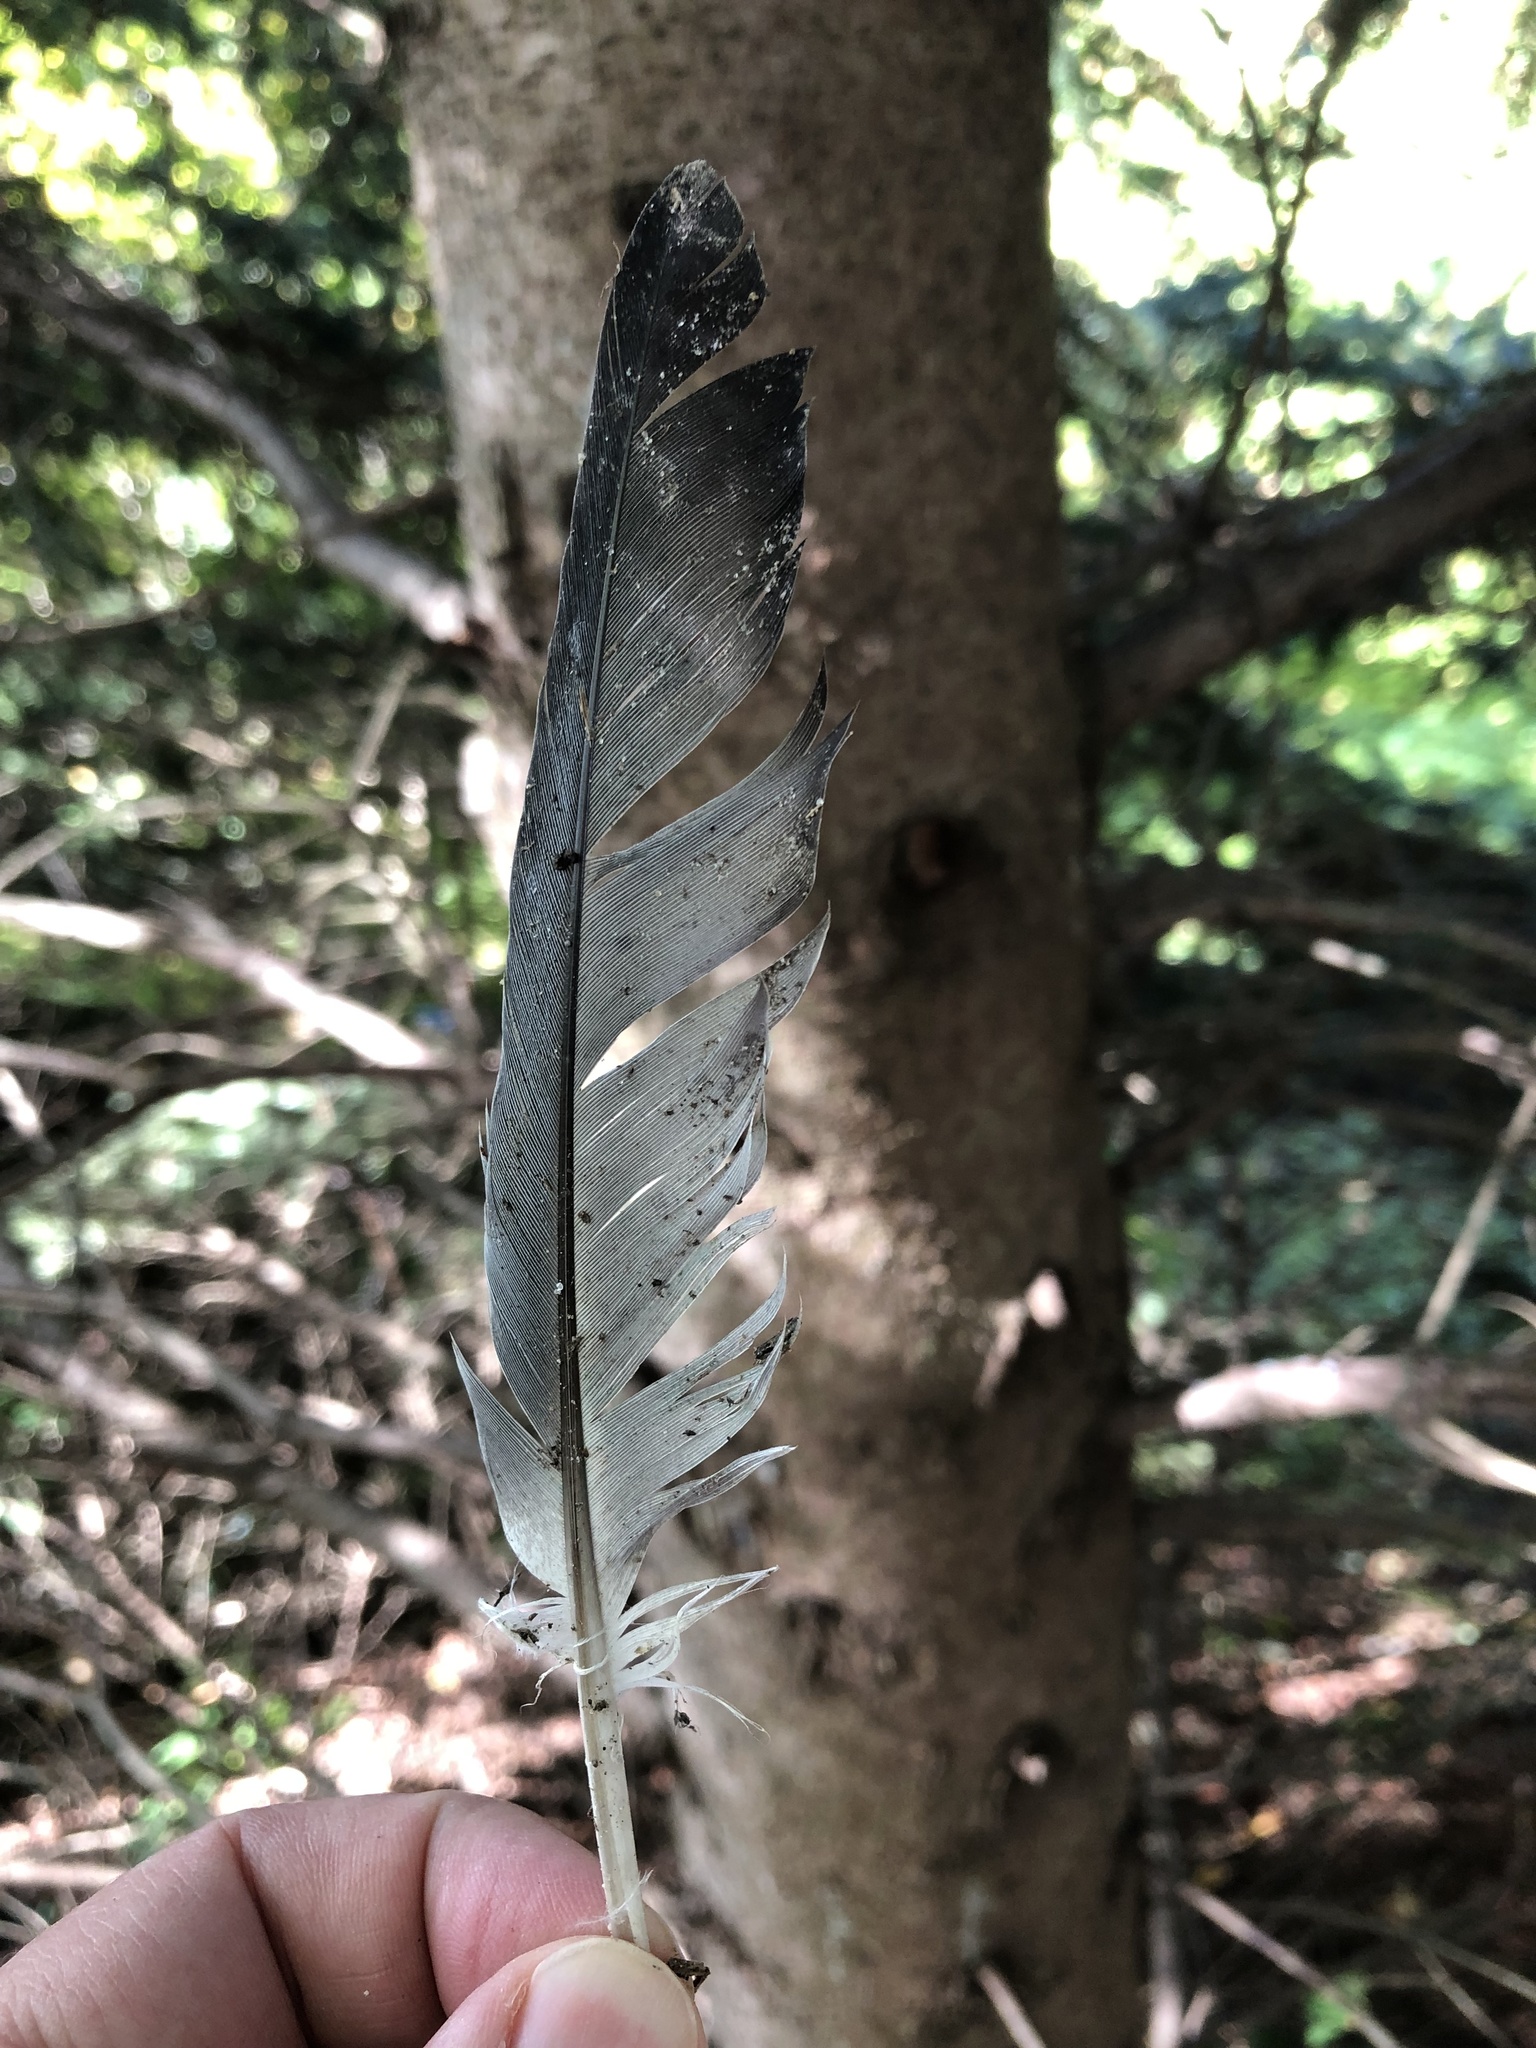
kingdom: Animalia
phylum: Chordata
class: Aves
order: Columbiformes
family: Columbidae
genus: Columba
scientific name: Columba livia
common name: Rock pigeon
